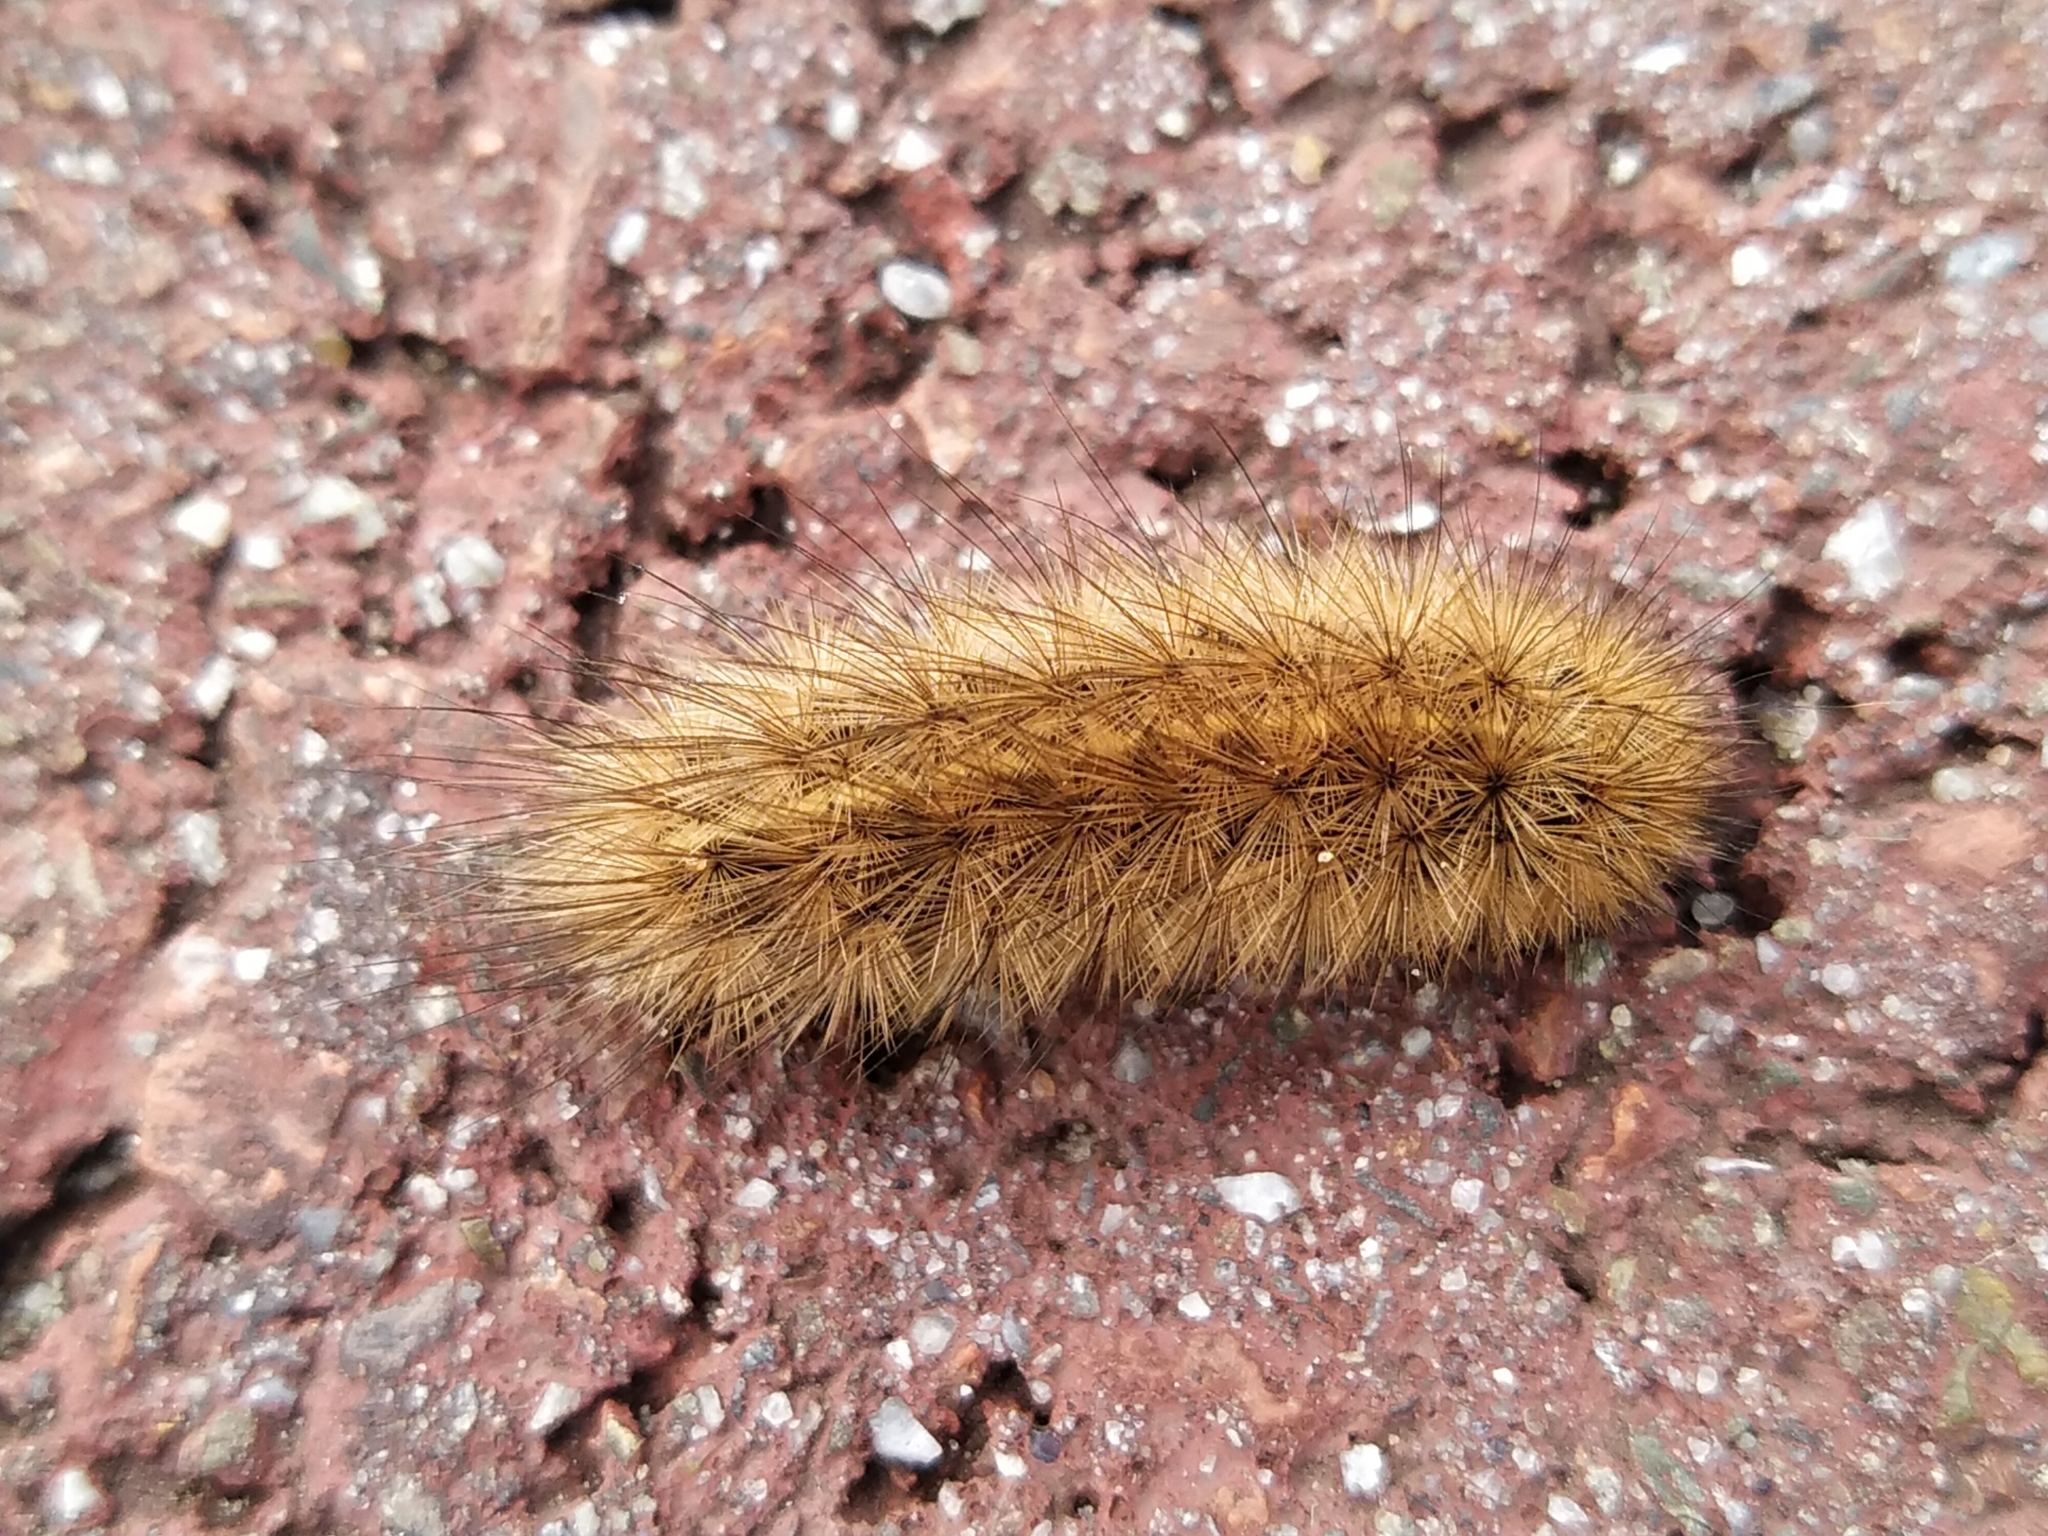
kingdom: Animalia
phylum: Arthropoda
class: Insecta
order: Lepidoptera
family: Erebidae
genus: Phragmatobia
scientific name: Phragmatobia fuliginosa
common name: Ruby tiger
